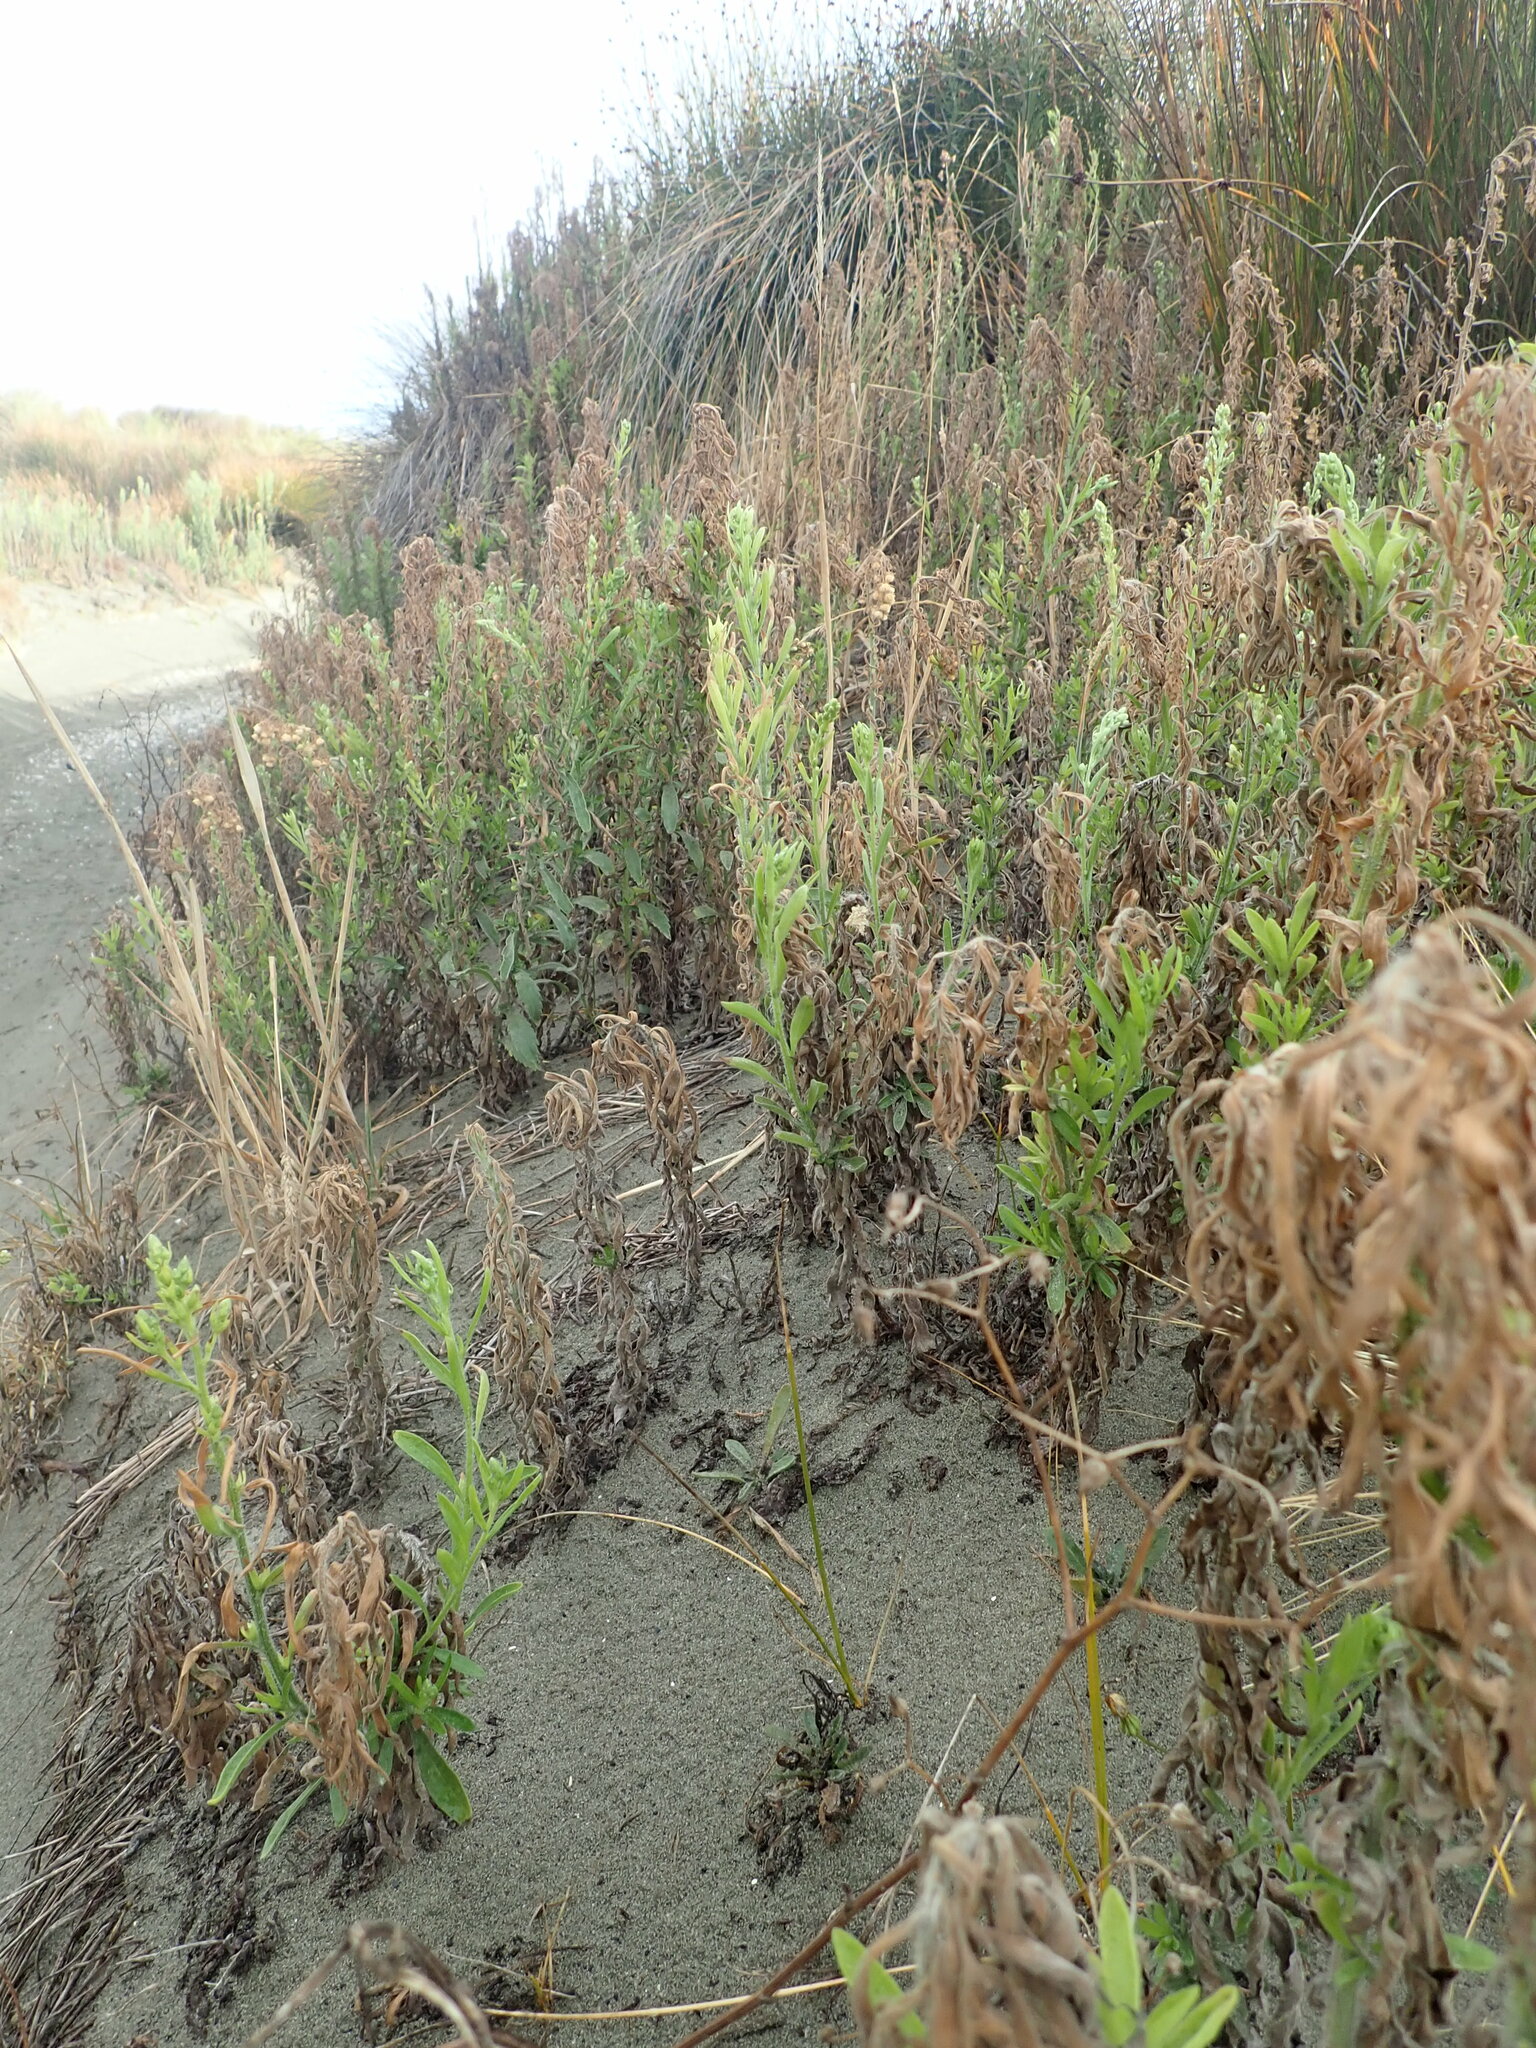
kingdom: Plantae
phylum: Tracheophyta
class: Magnoliopsida
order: Asterales
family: Asteraceae
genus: Erigeron
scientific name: Erigeron sumatrensis
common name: Daisy
